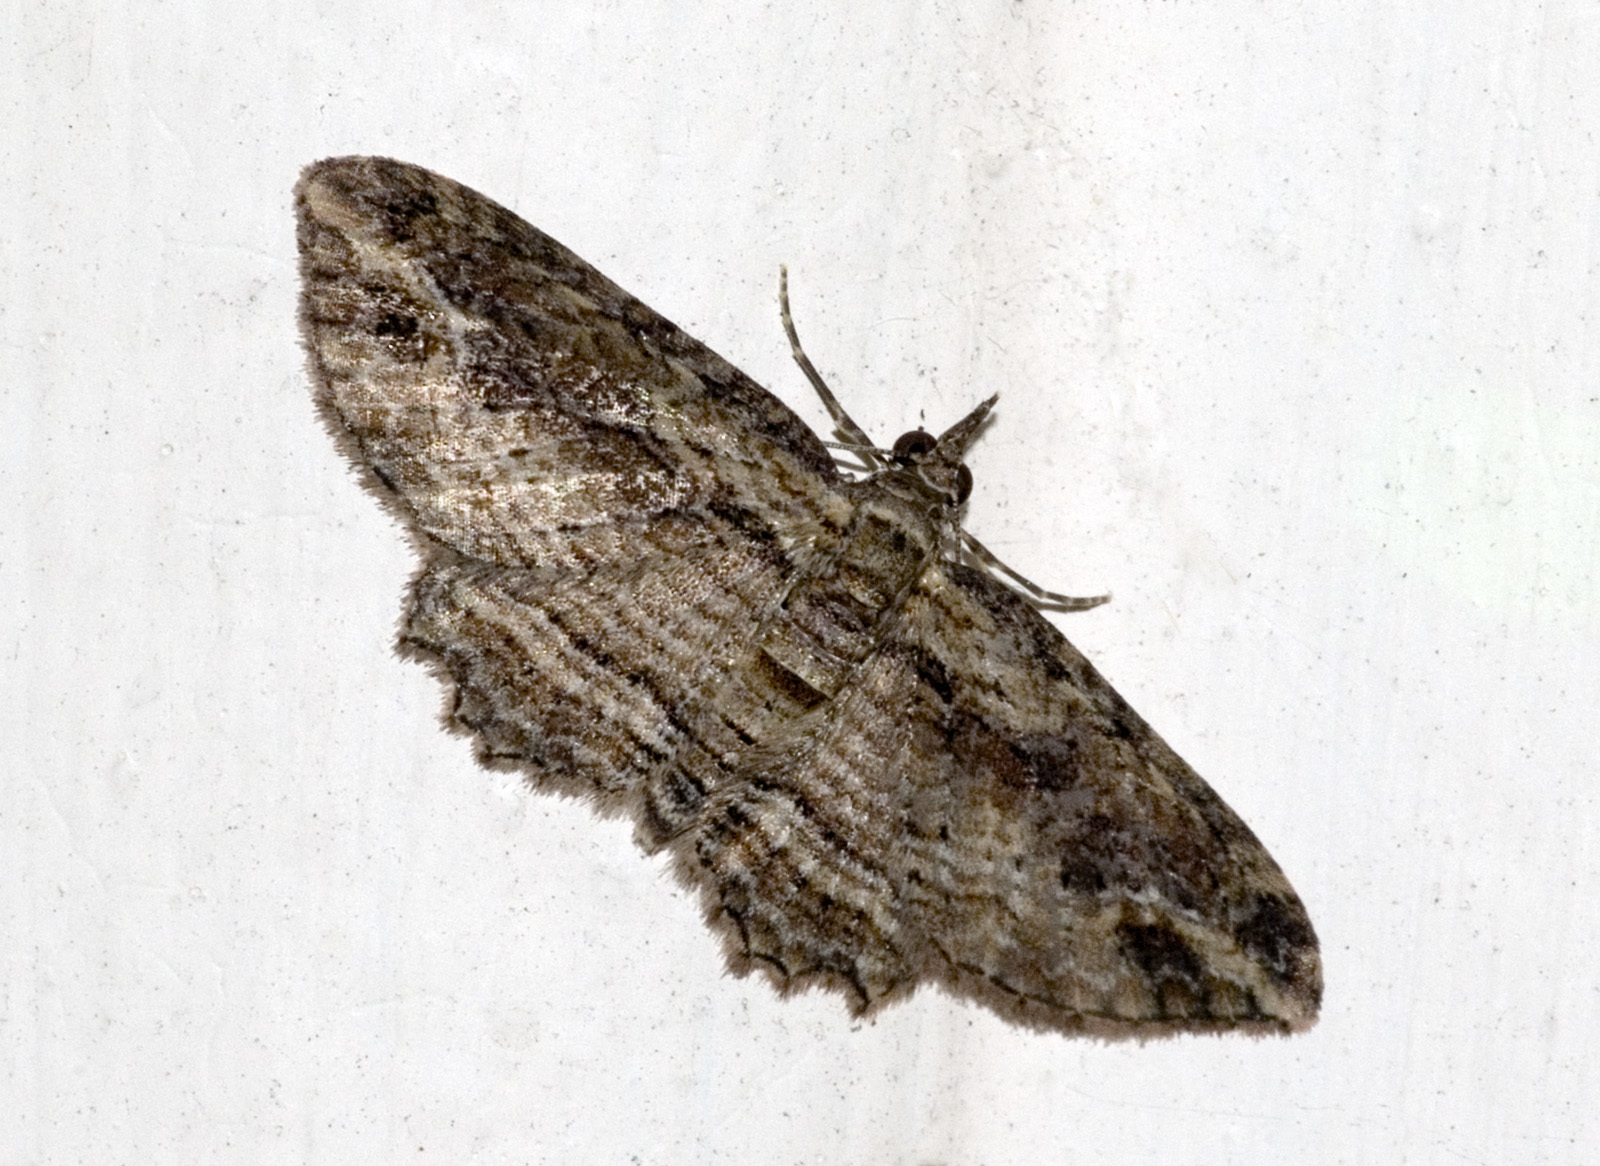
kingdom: Animalia
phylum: Arthropoda
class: Insecta
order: Lepidoptera
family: Geometridae
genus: Chloroclystis
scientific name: Chloroclystis filata
